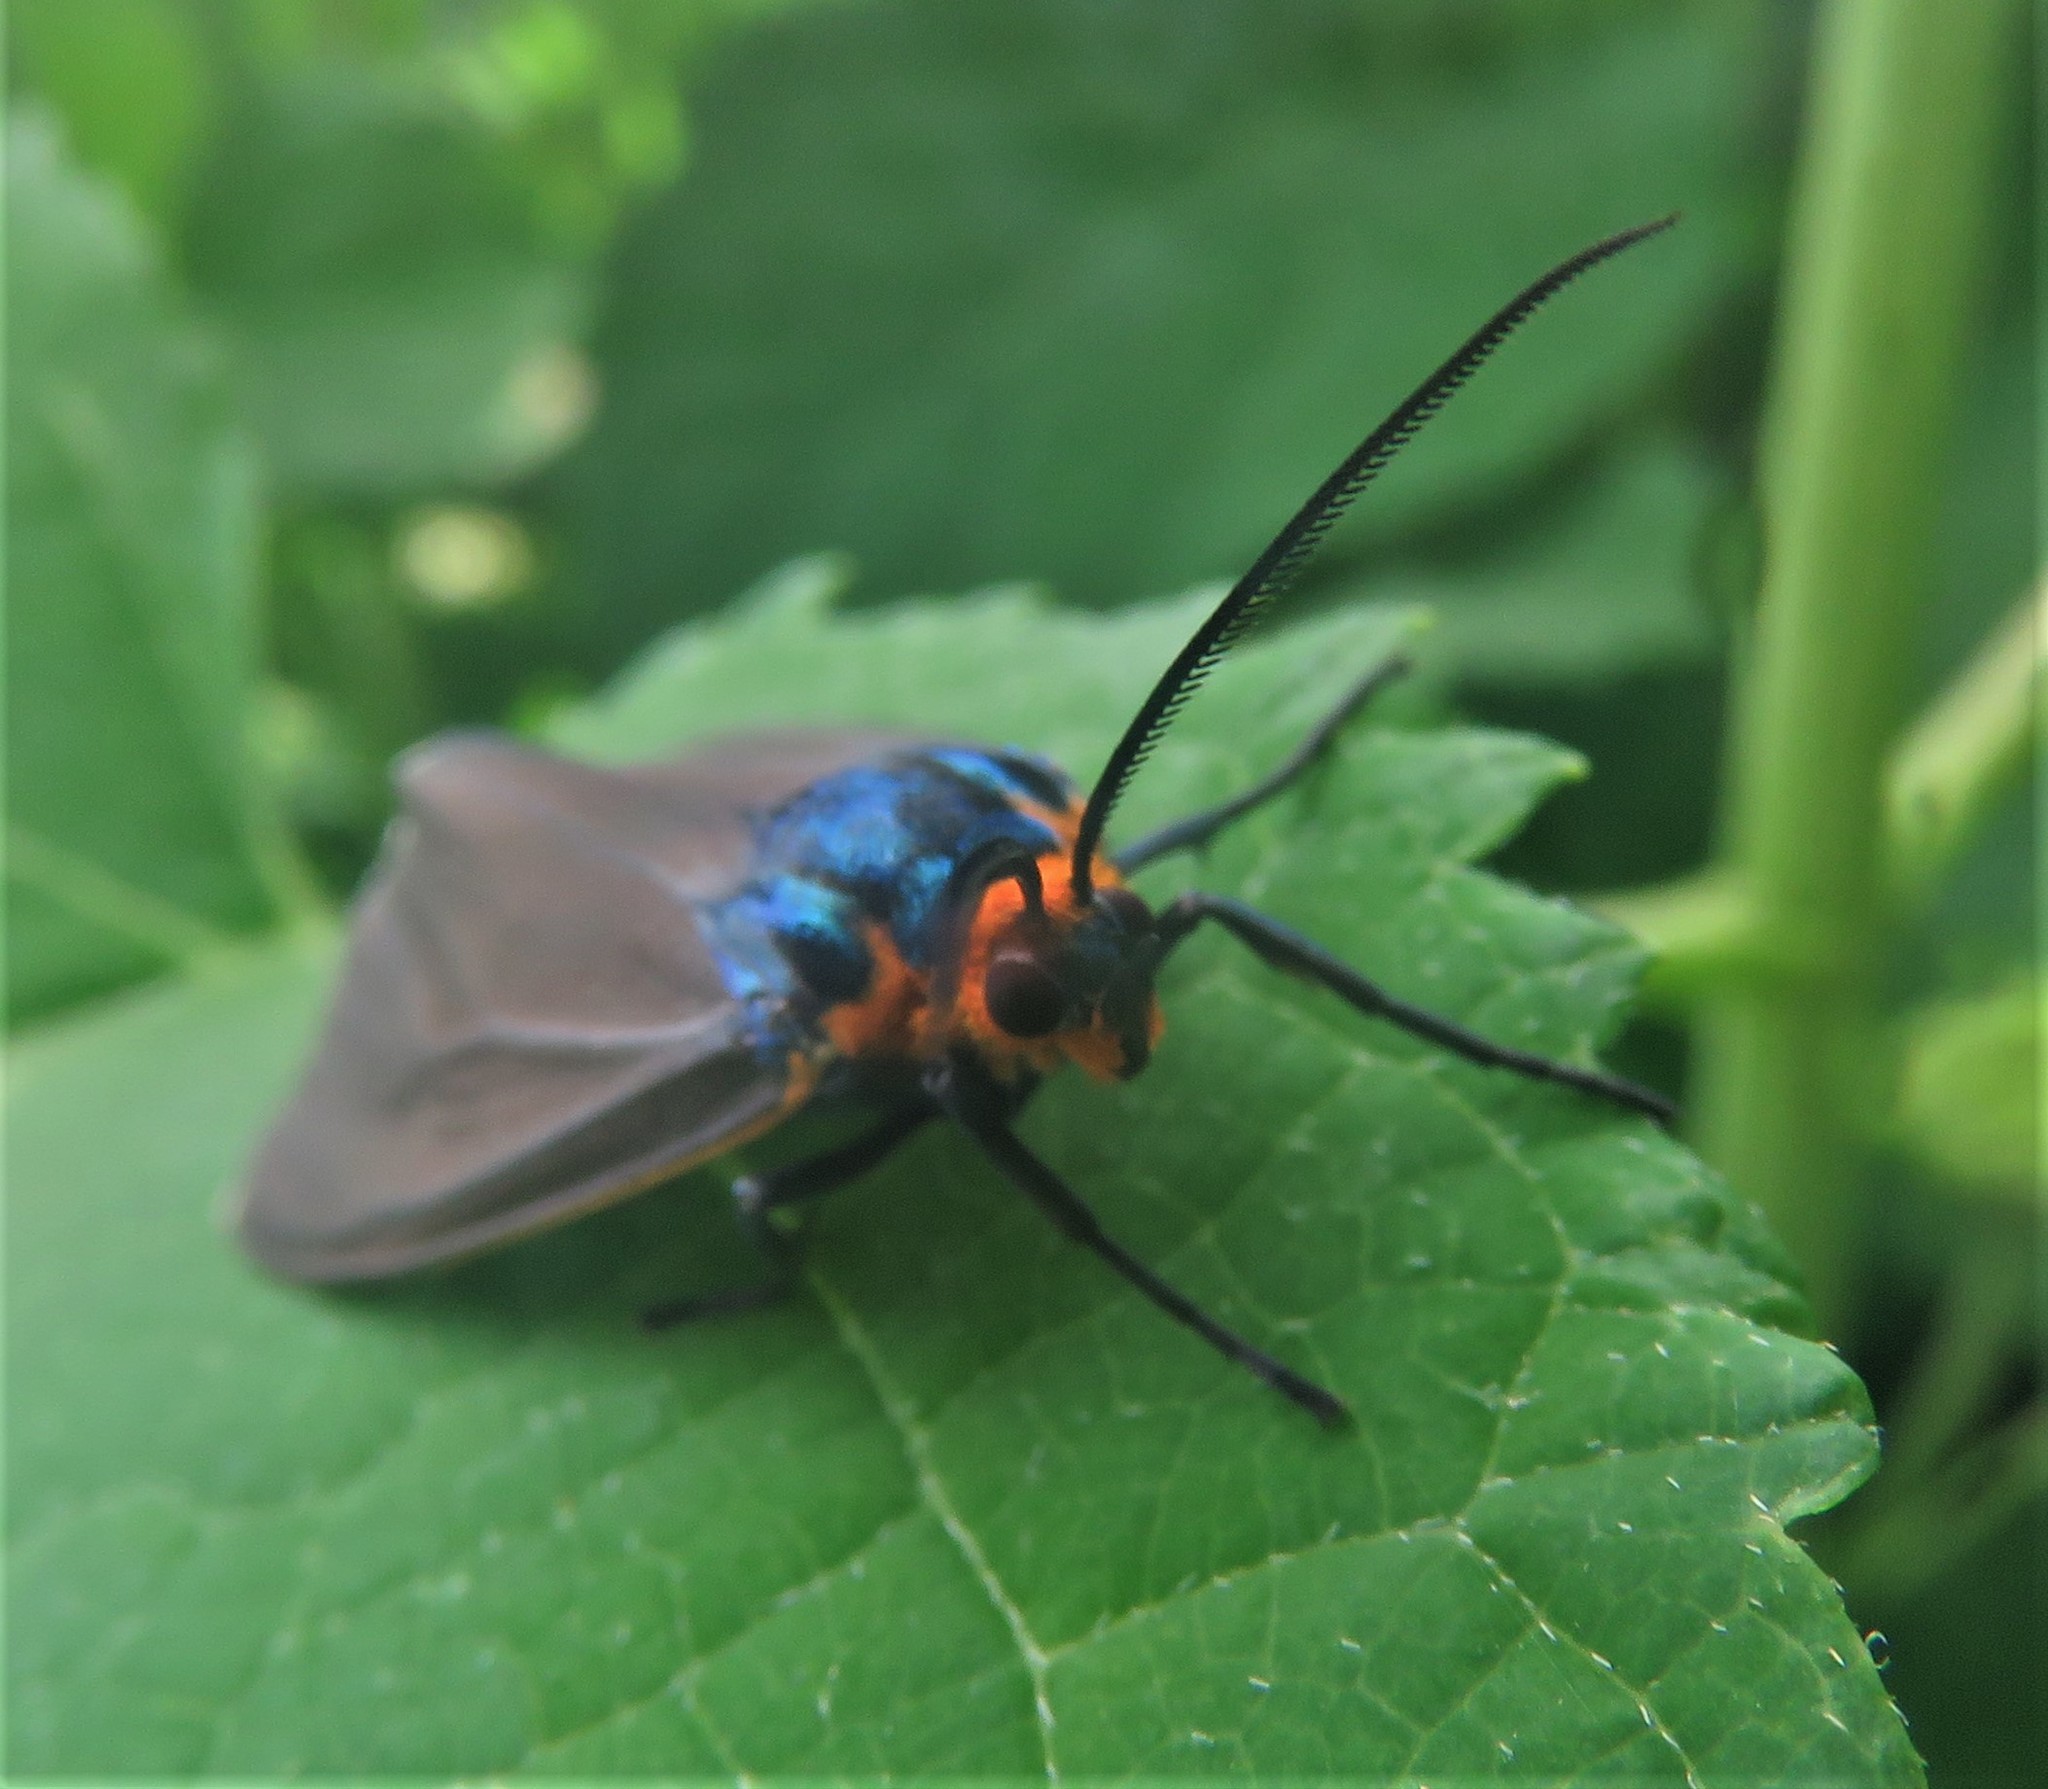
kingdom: Animalia
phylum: Arthropoda
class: Insecta
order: Lepidoptera
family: Erebidae
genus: Ctenucha
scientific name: Ctenucha virginica
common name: Virginia ctenucha moth
